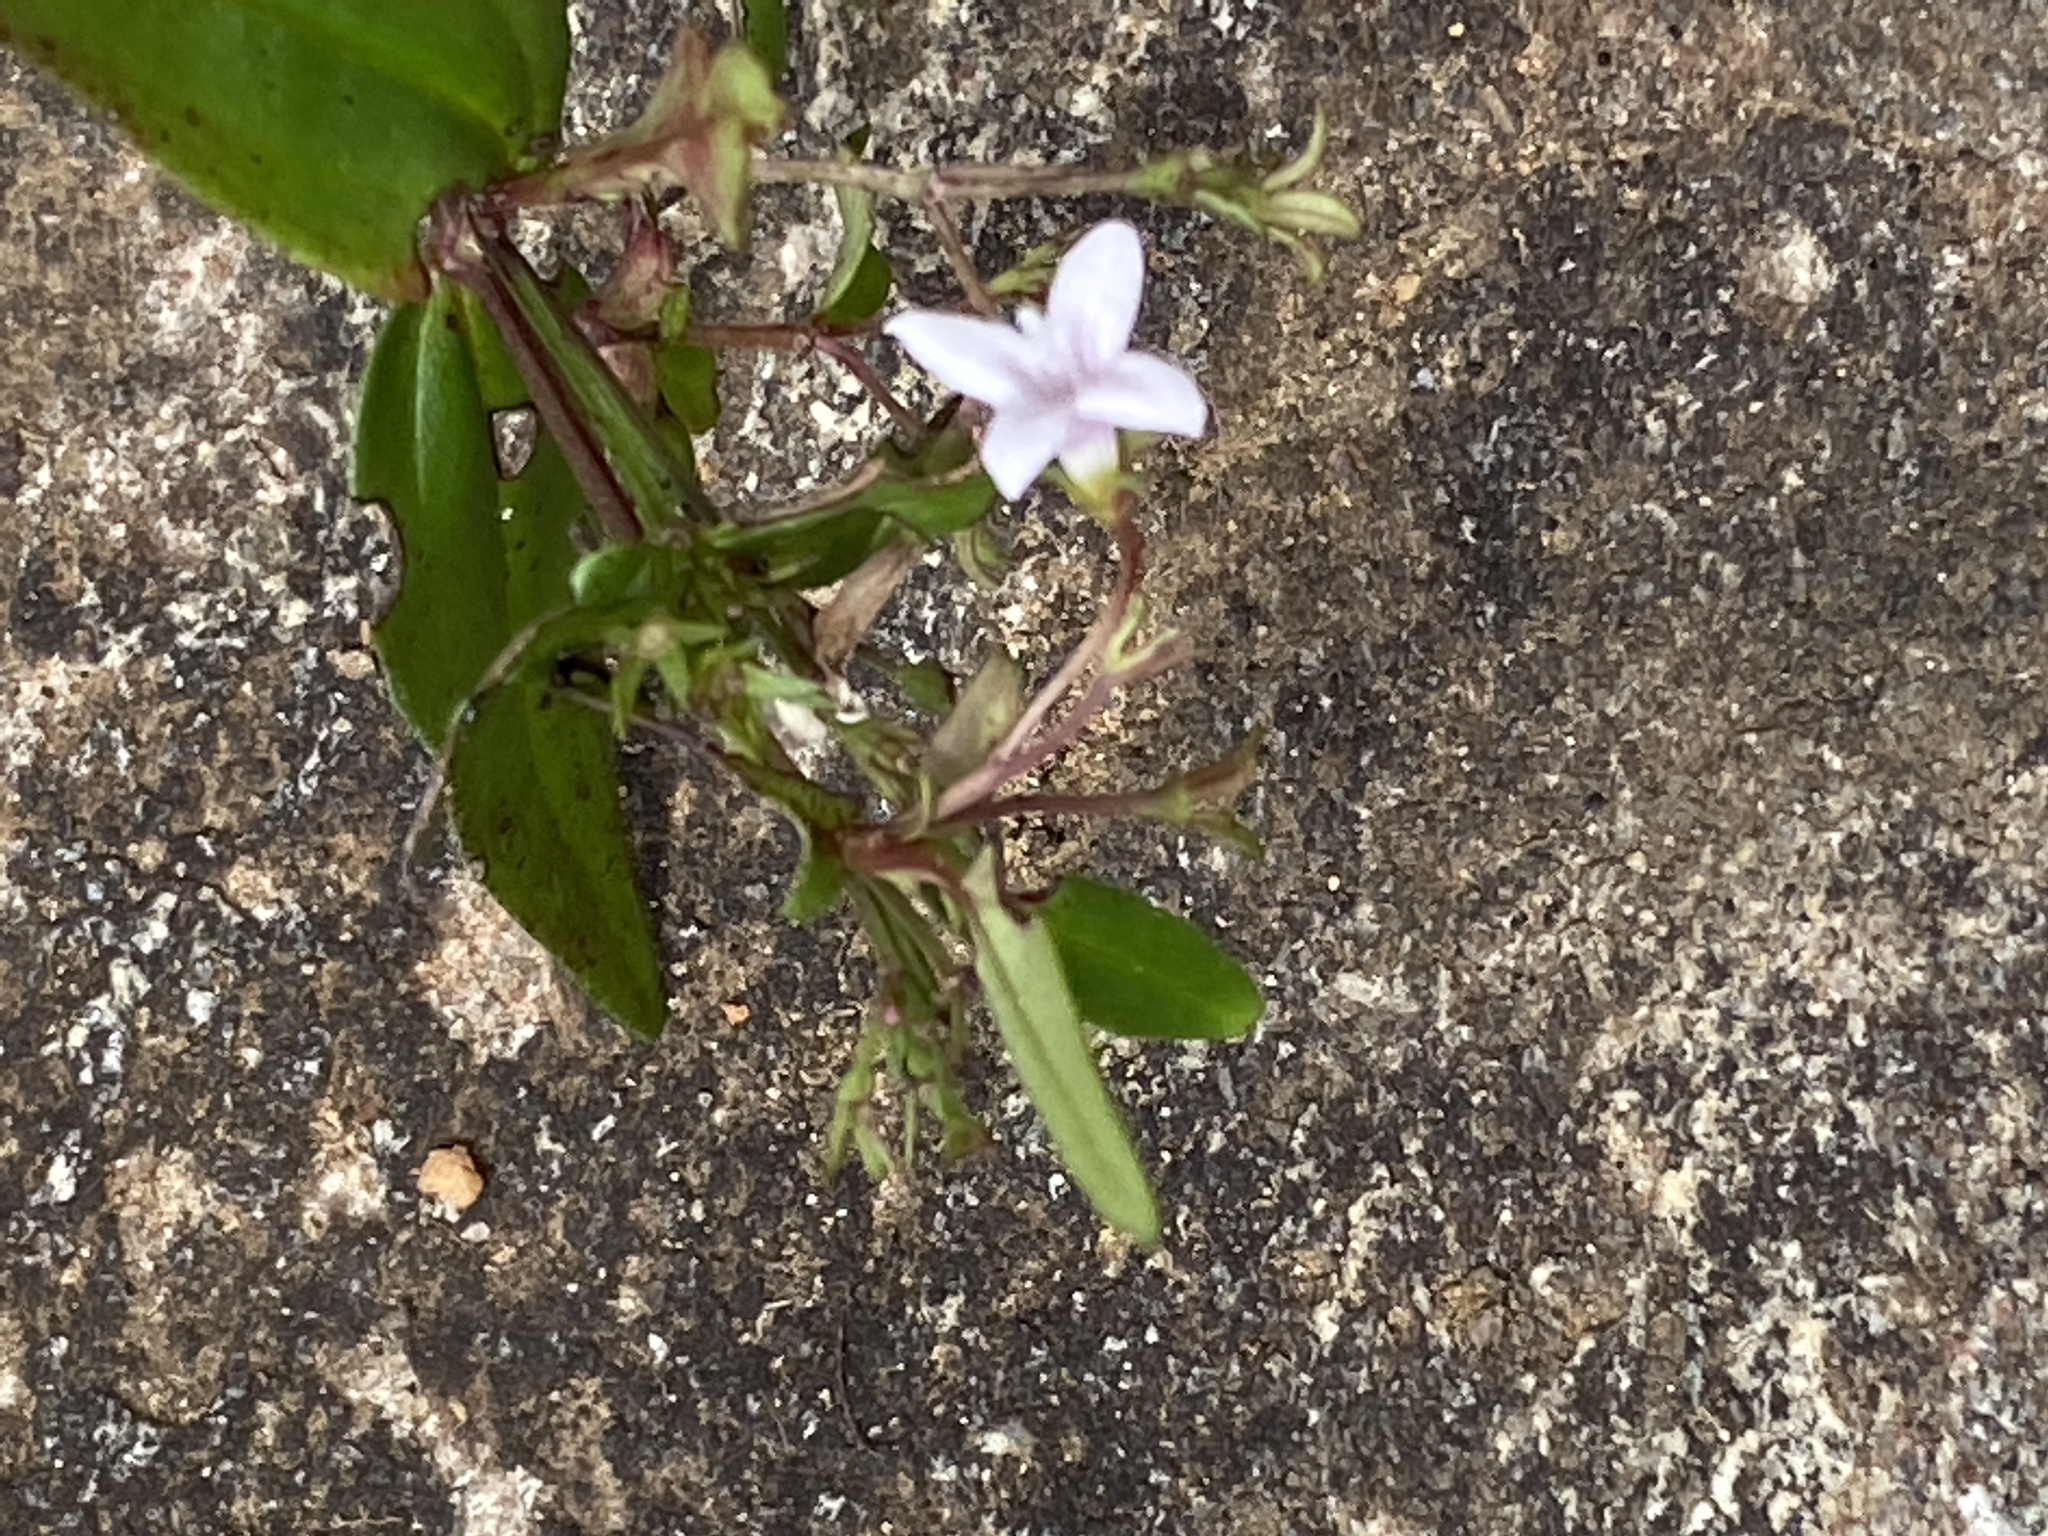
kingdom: Plantae
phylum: Tracheophyta
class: Magnoliopsida
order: Gentianales
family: Rubiaceae
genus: Houstonia
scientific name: Houstonia purpurea
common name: Summer bluet
